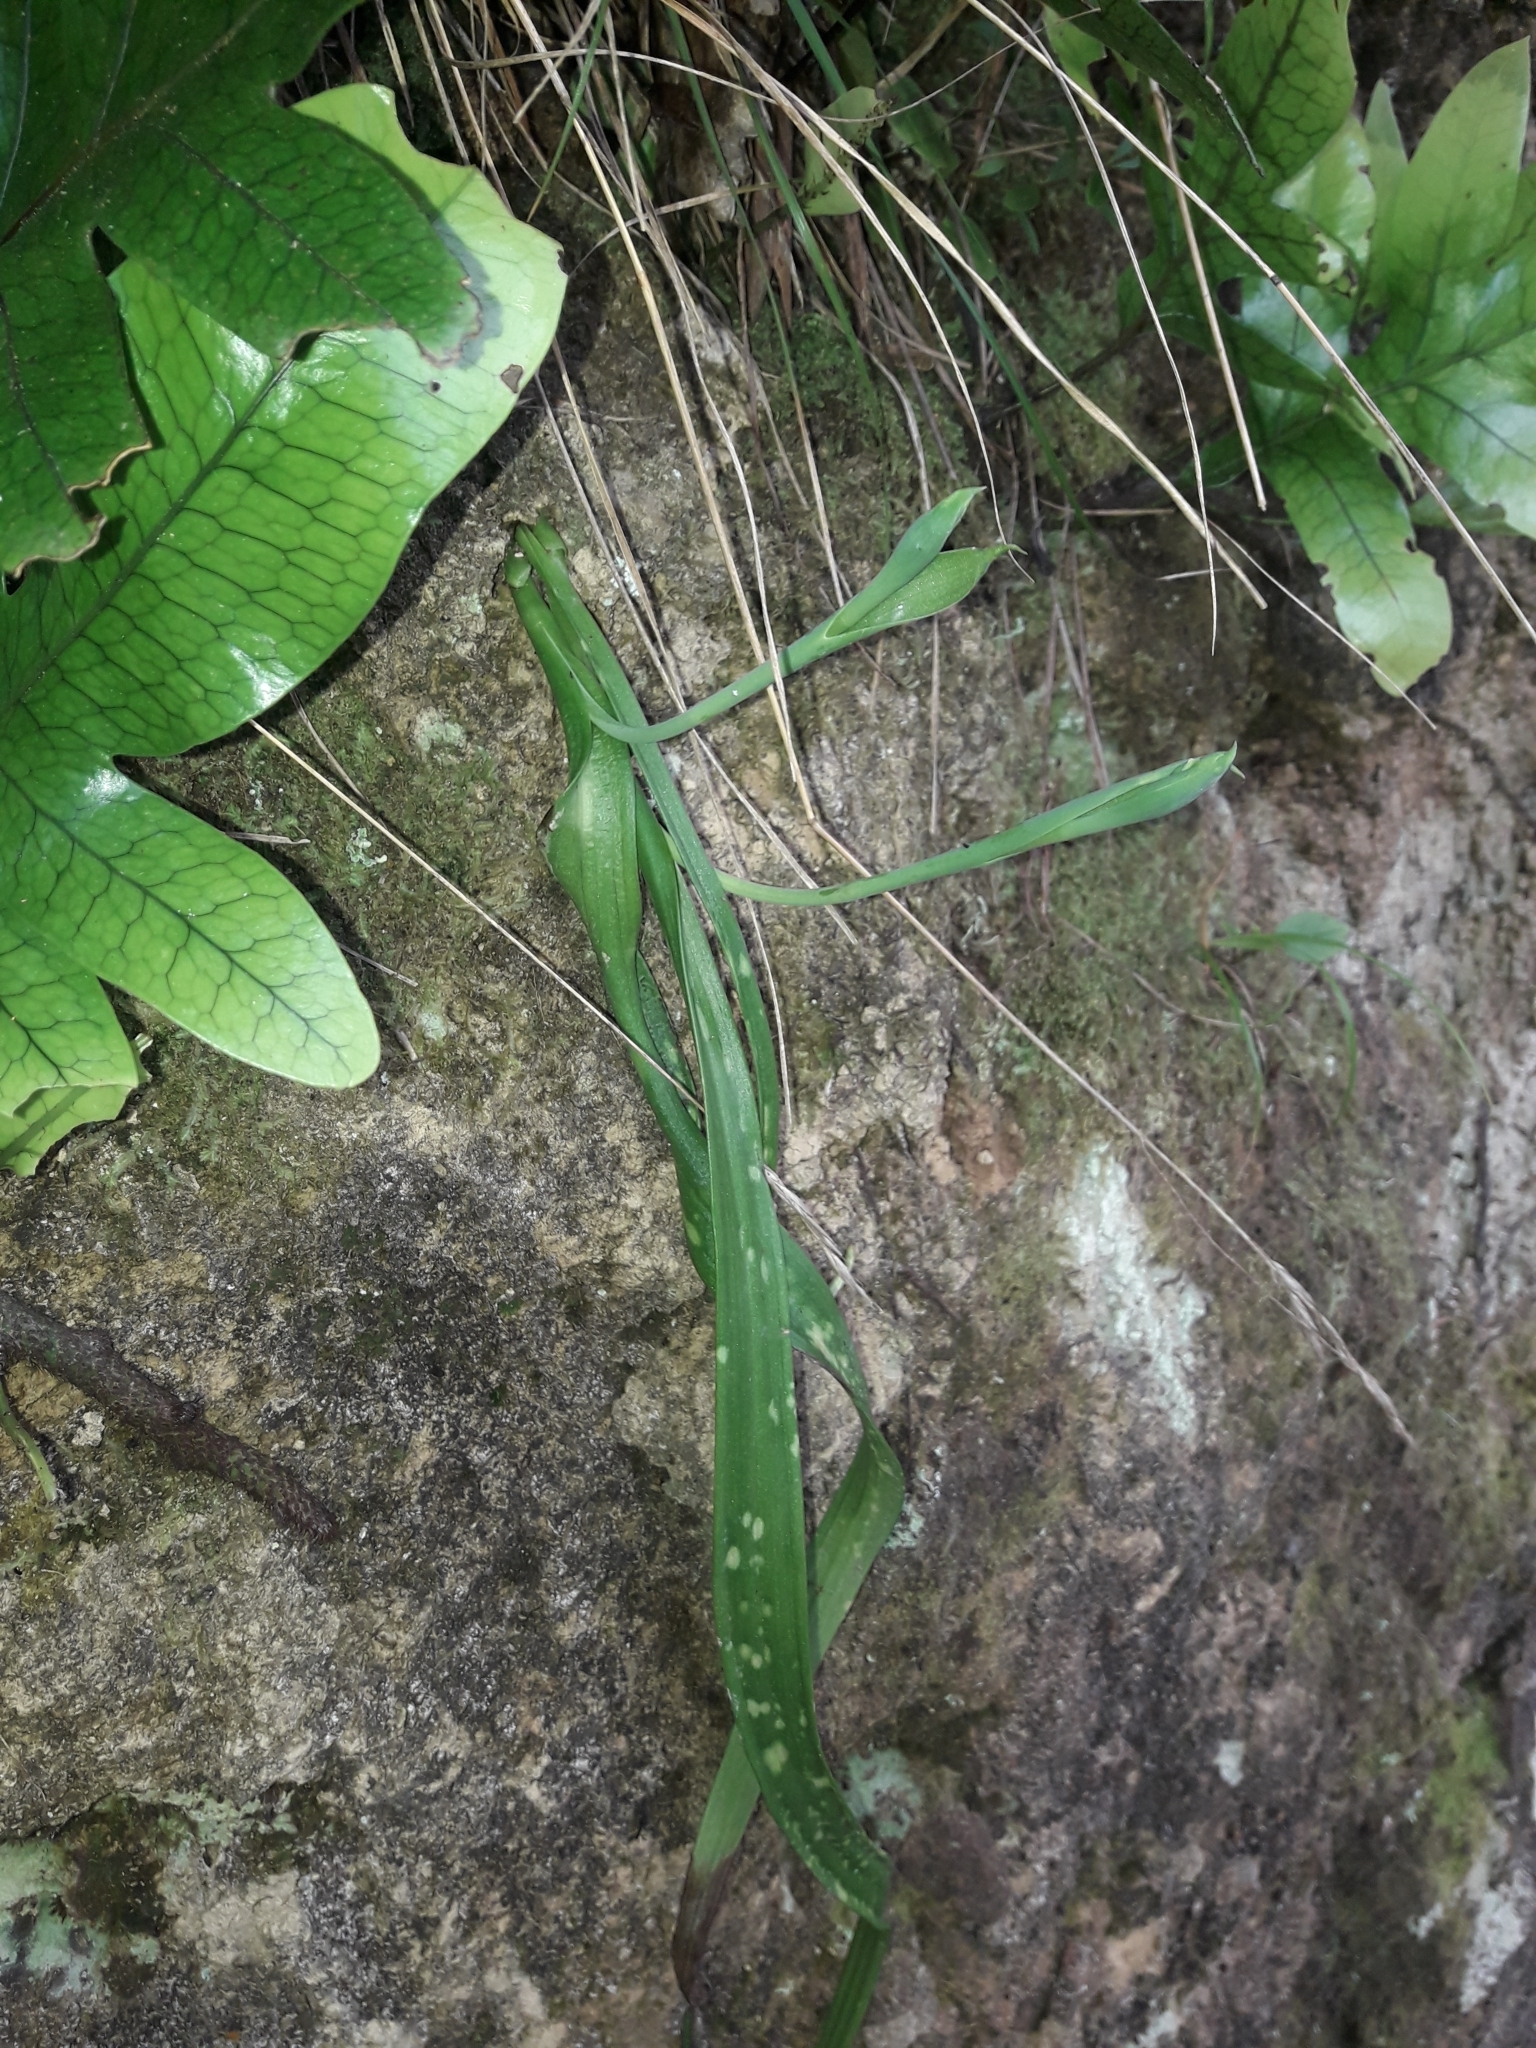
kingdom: Plantae
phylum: Tracheophyta
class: Liliopsida
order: Asparagales
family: Orchidaceae
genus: Thelymitra
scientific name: Thelymitra longifolia
